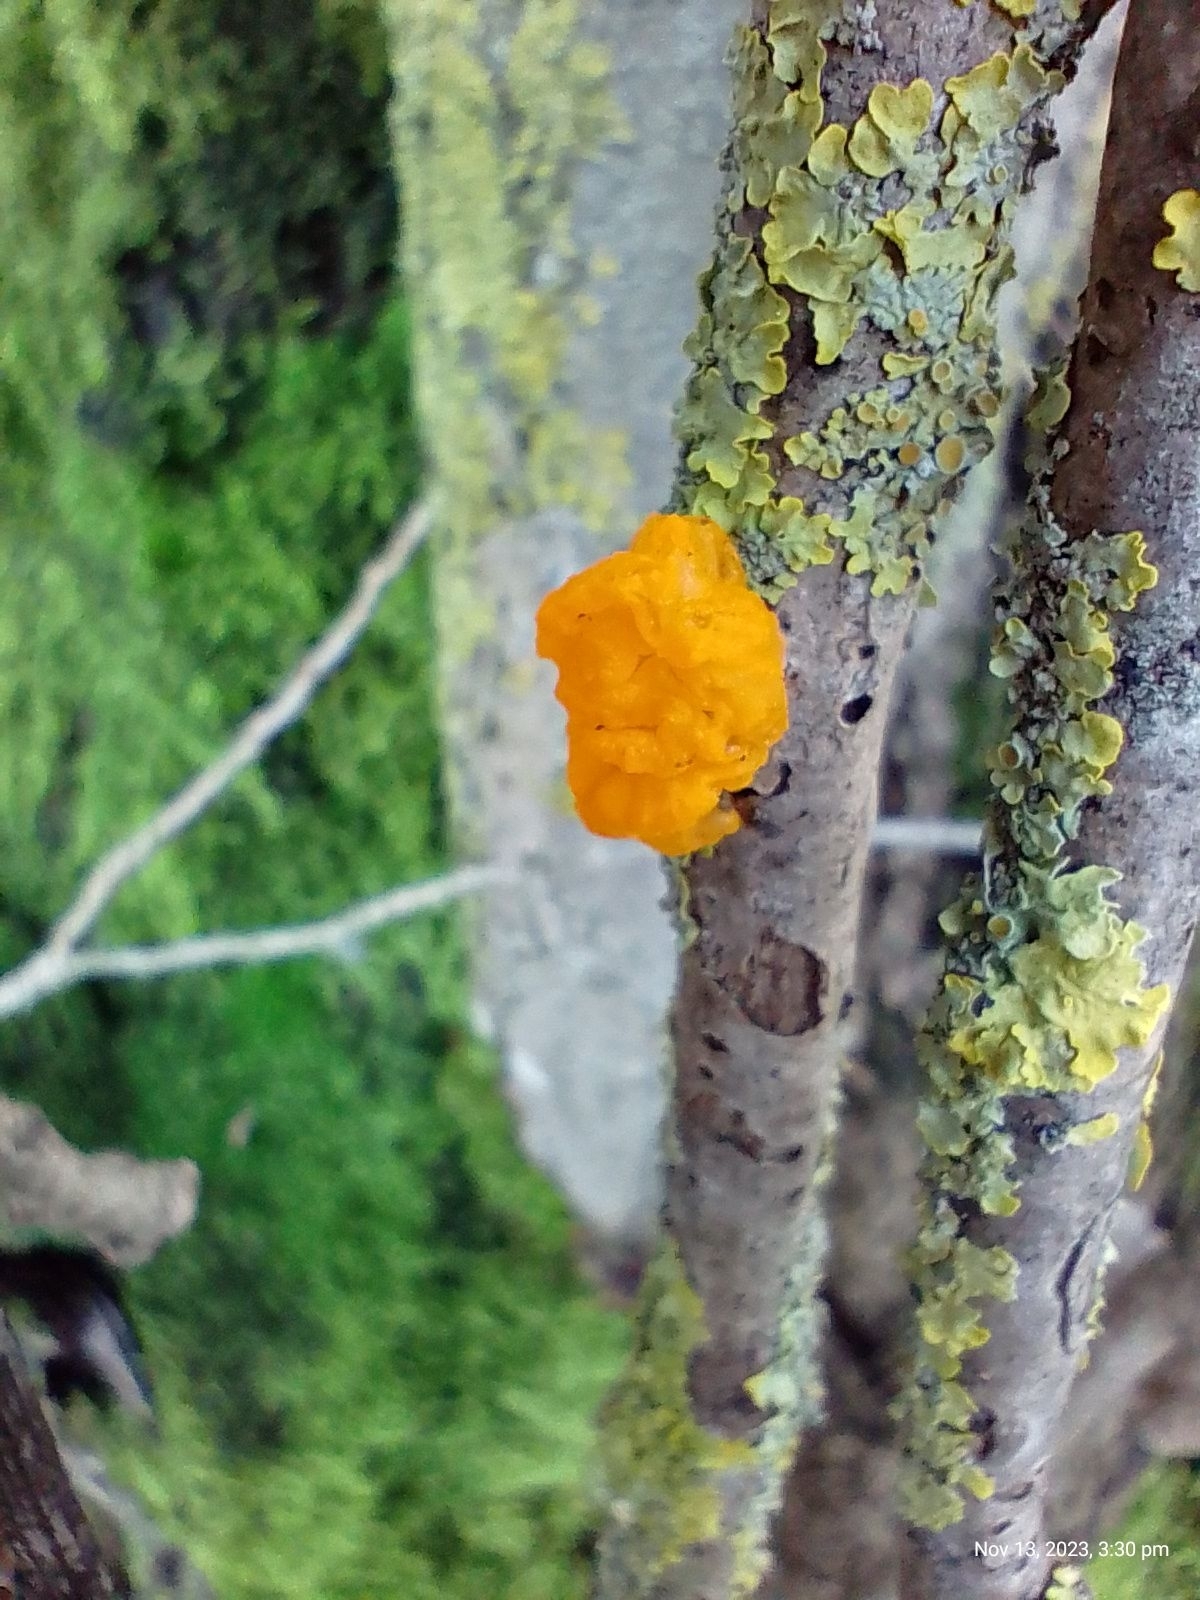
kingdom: Fungi
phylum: Basidiomycota
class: Tremellomycetes
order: Tremellales
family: Tremellaceae
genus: Tremella
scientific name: Tremella mesenterica
